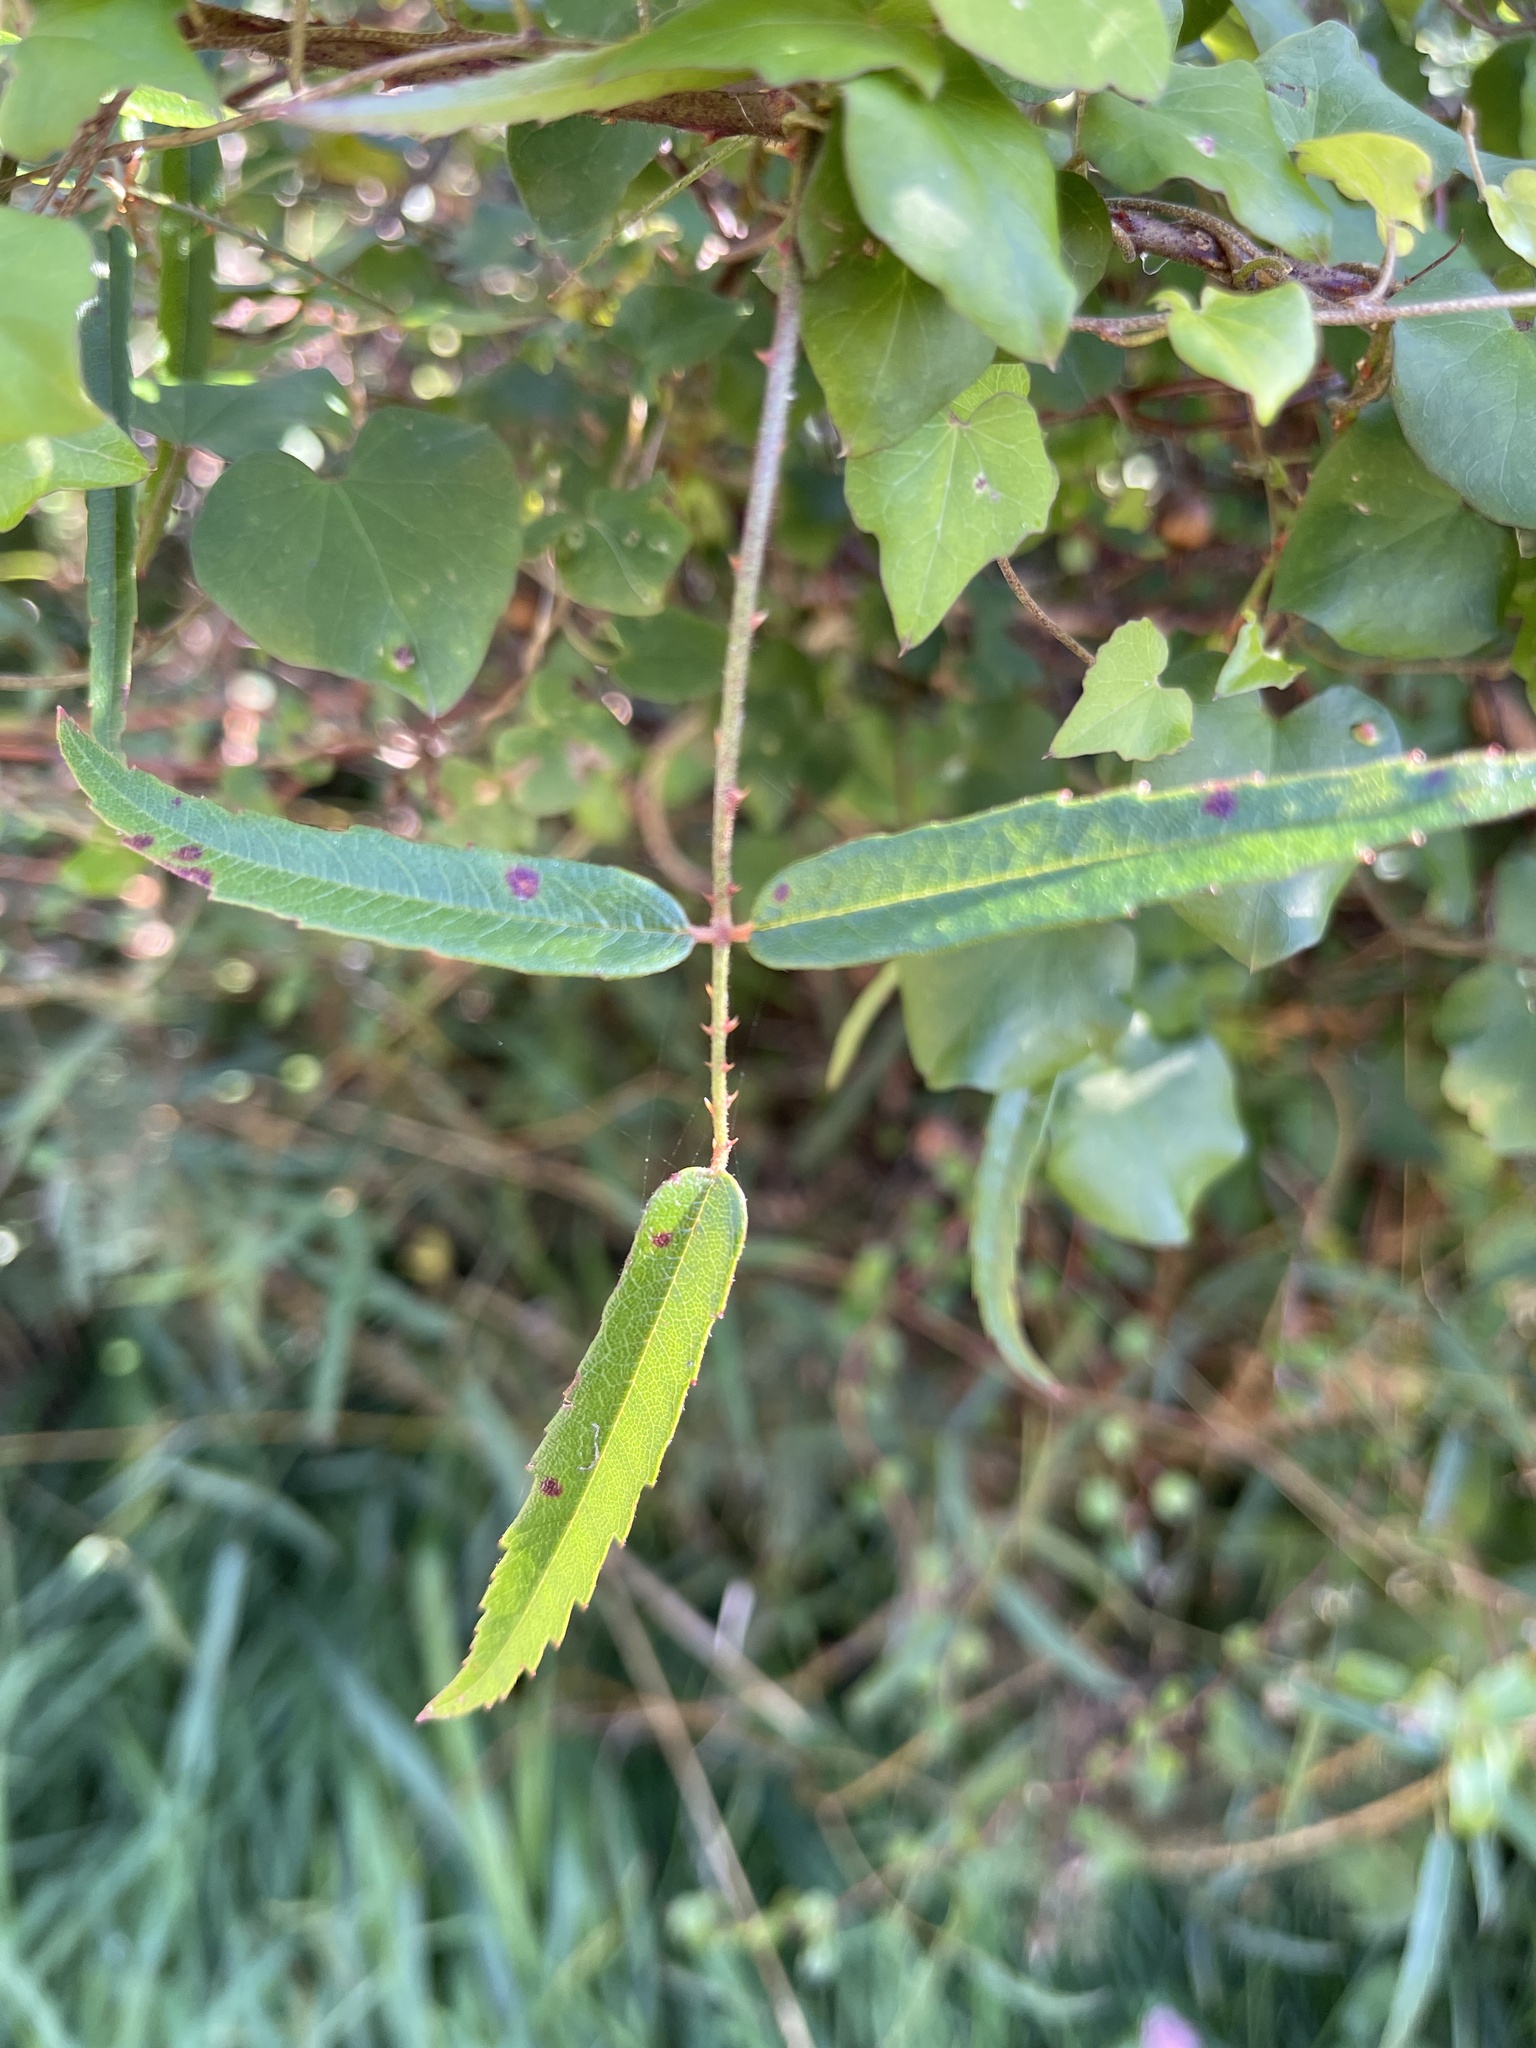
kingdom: Plantae
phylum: Tracheophyta
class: Magnoliopsida
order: Rosales
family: Rosaceae
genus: Rubus
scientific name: Rubus schmidelioides
